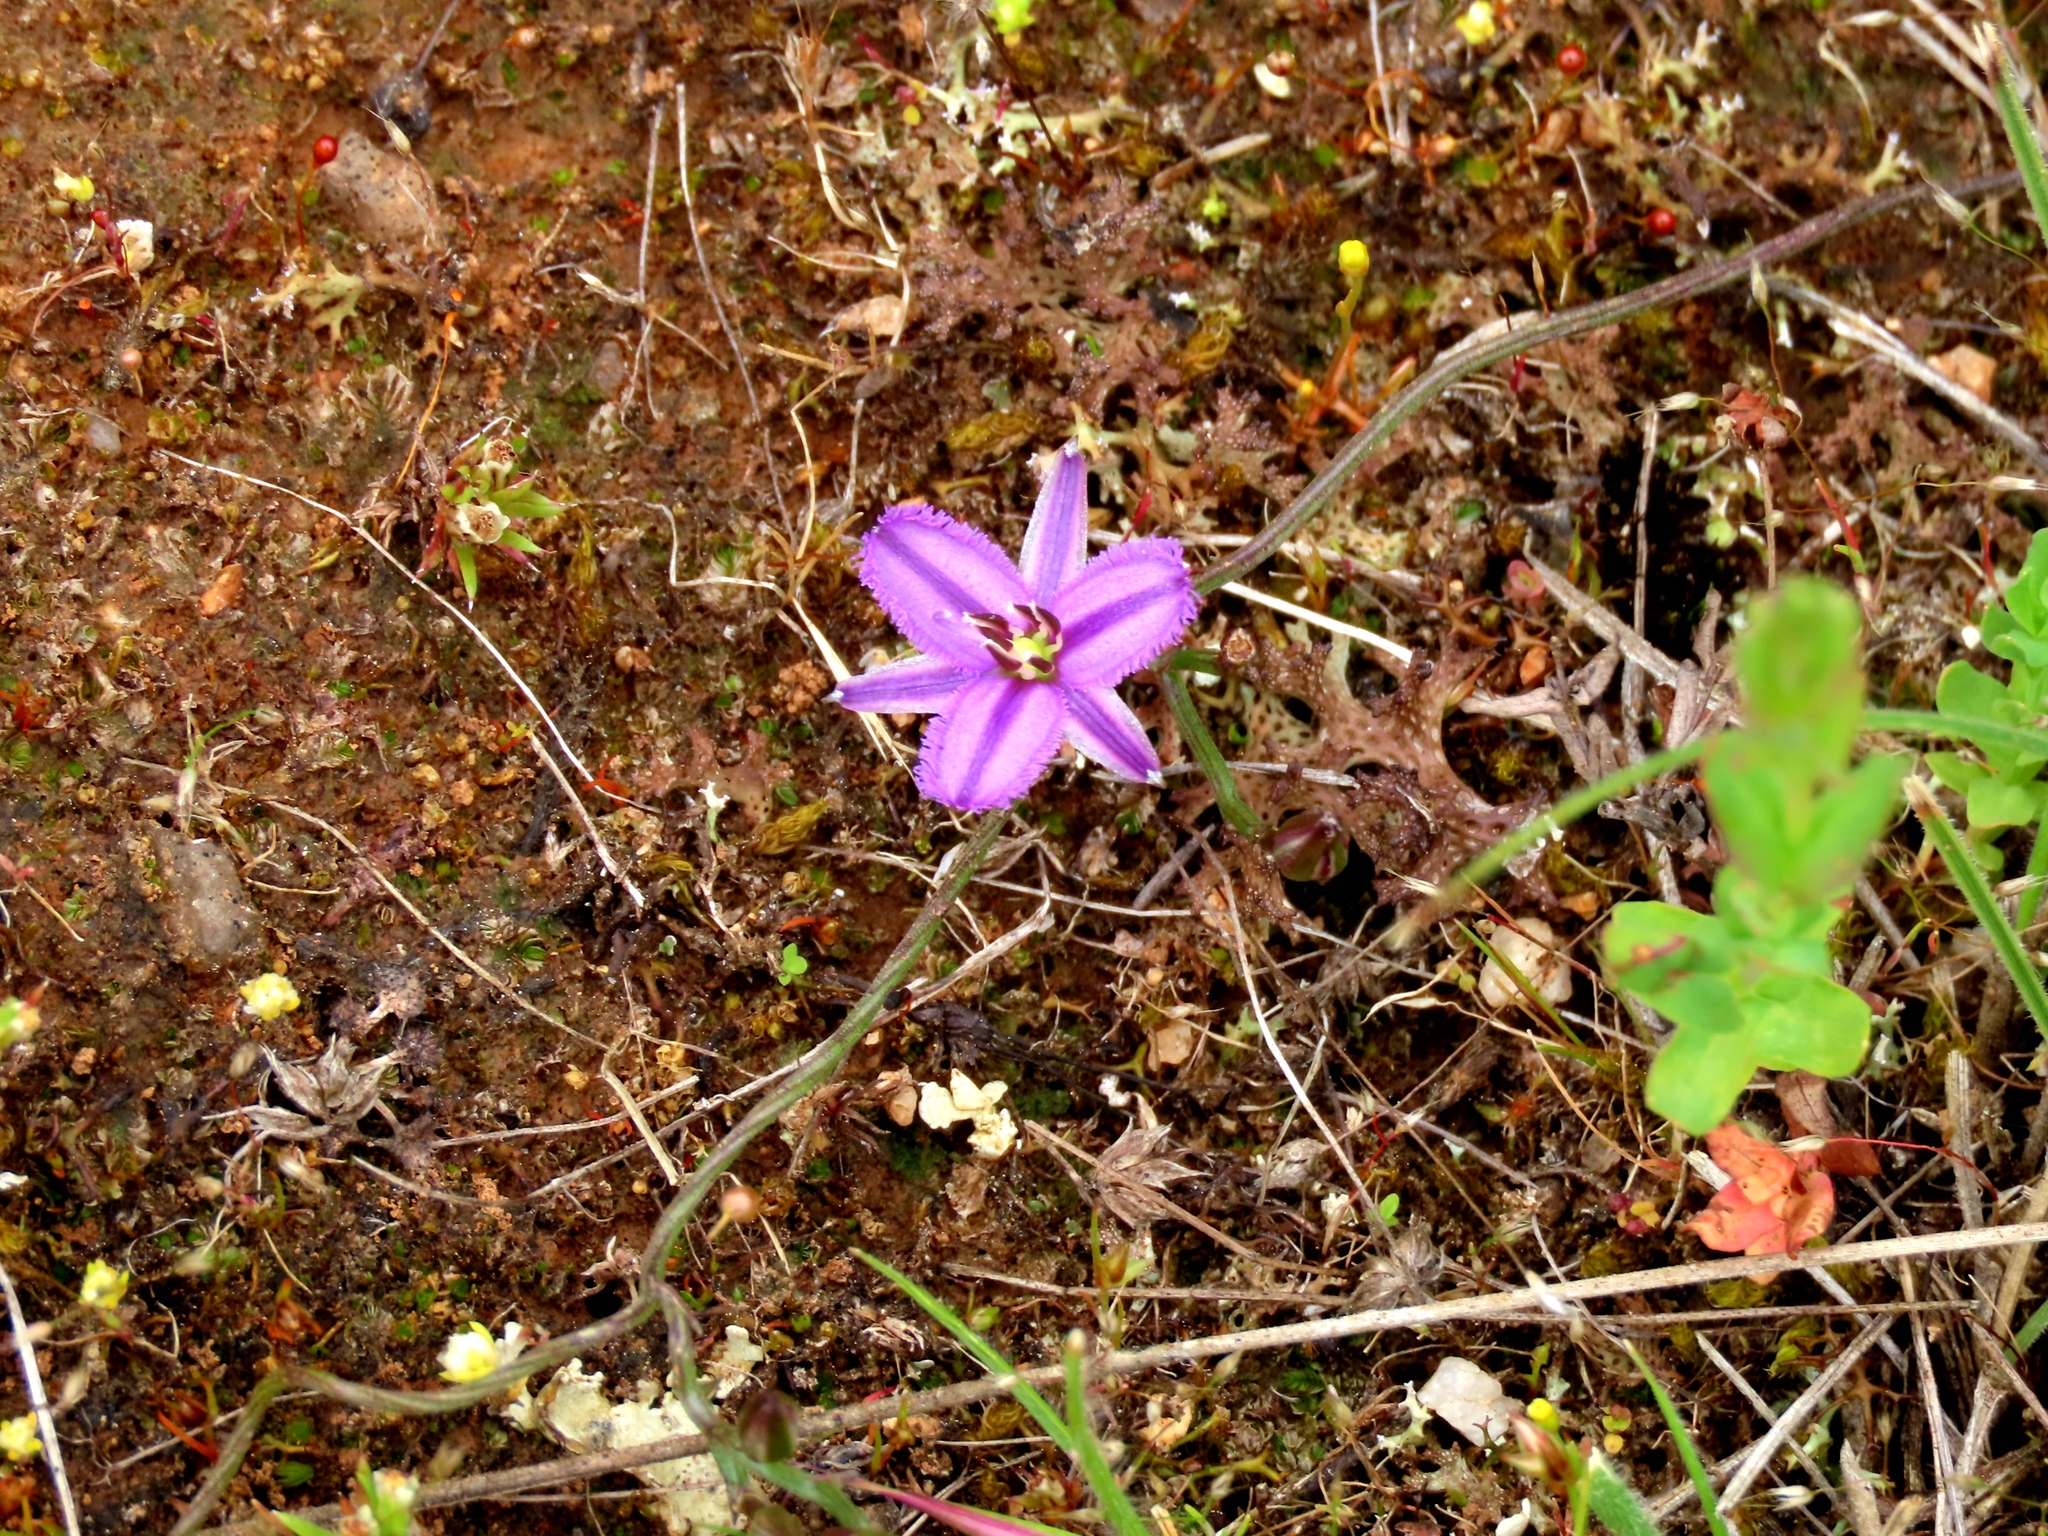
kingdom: Plantae
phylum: Tracheophyta
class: Liliopsida
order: Asparagales
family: Asparagaceae
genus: Thysanotus
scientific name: Thysanotus patersonii
